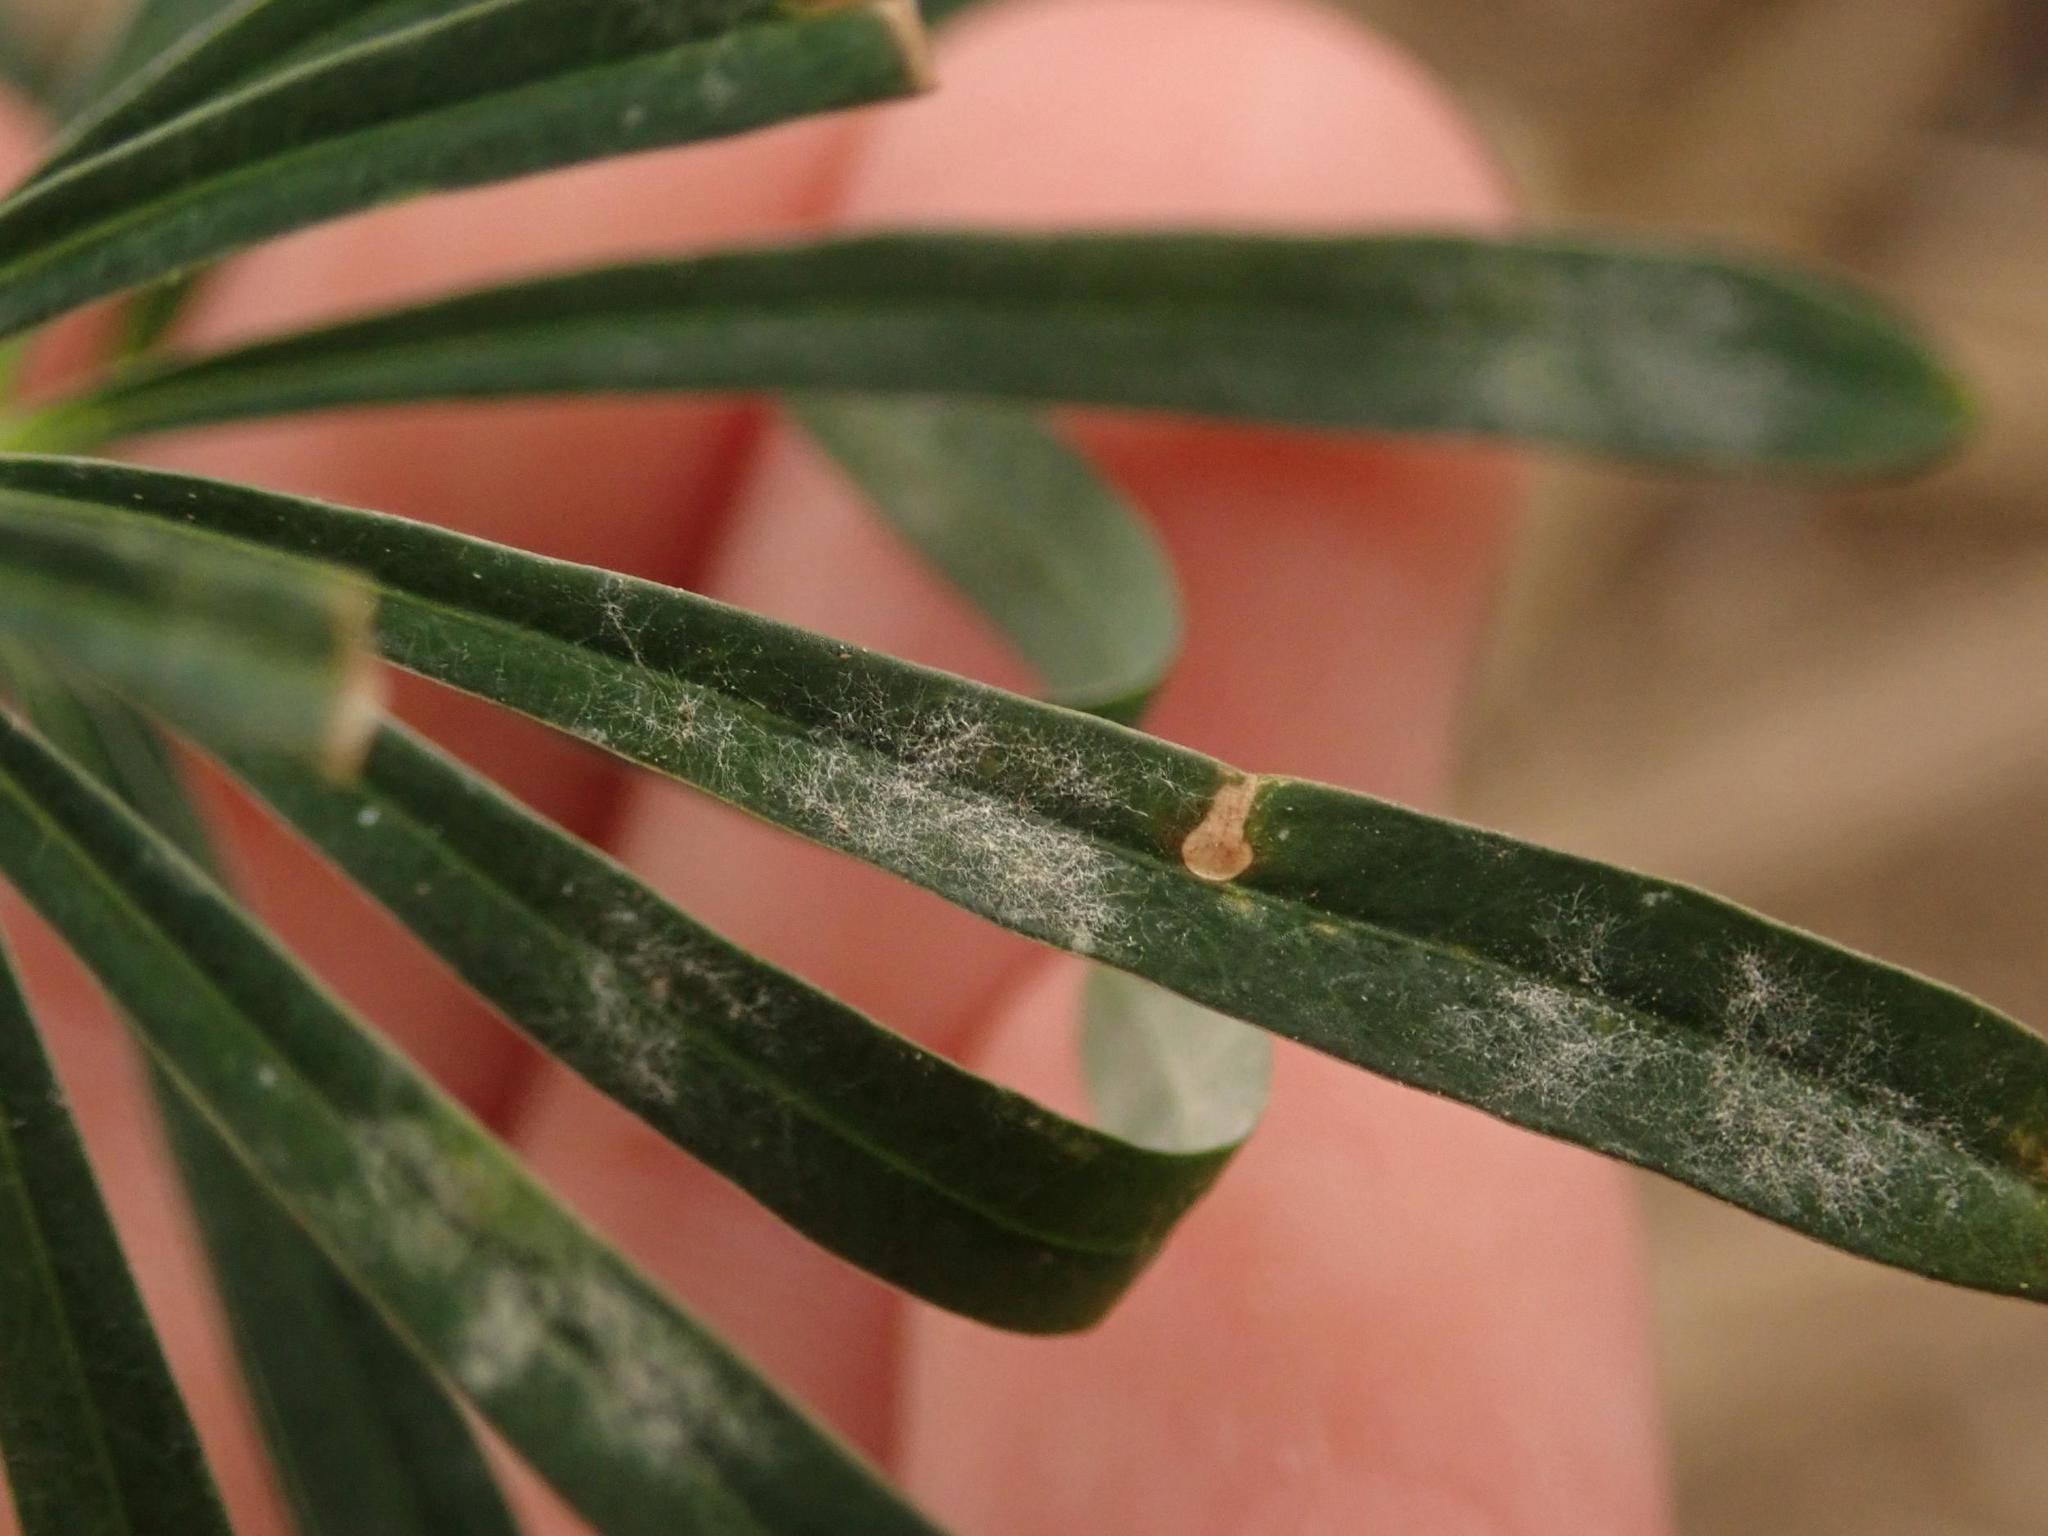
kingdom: Fungi
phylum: Ascomycota
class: Leotiomycetes
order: Helotiales
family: Erysiphaceae
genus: Podosphaera
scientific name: Podosphaera euphorbiae
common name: Eurasian poinsettia powdery mildew
